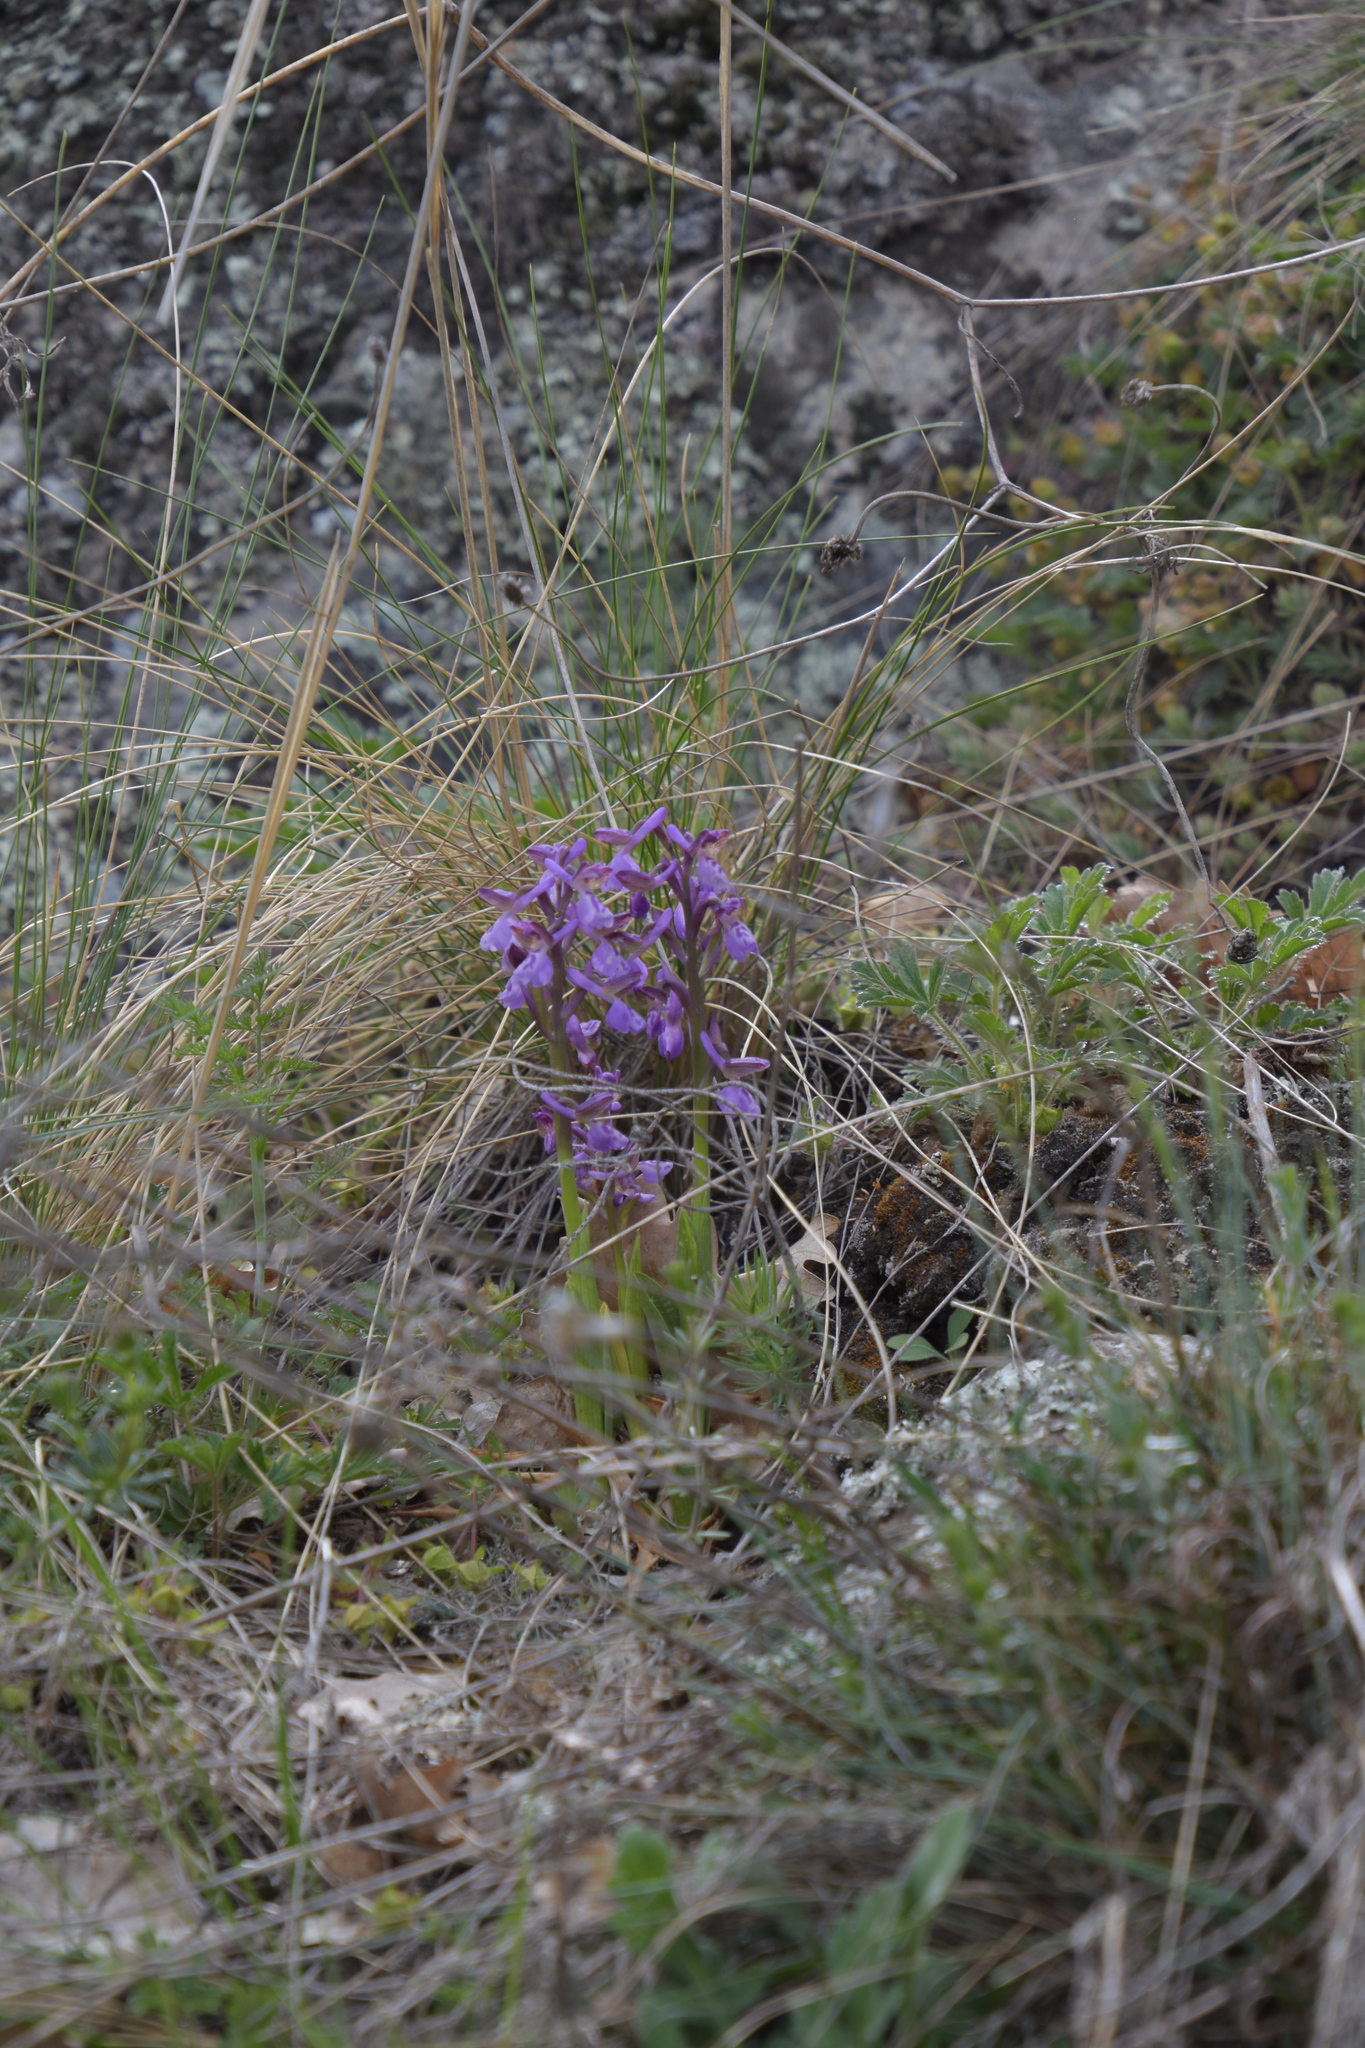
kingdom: Plantae
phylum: Tracheophyta
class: Liliopsida
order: Asparagales
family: Orchidaceae
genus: Anacamptis
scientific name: Anacamptis morio
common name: Green-winged orchid
